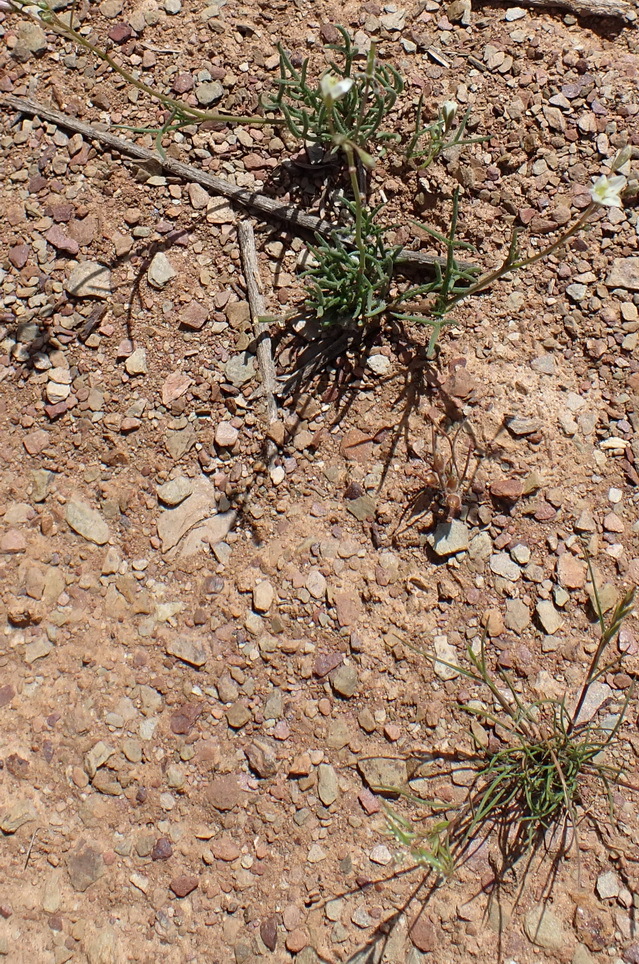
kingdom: Plantae
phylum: Tracheophyta
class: Magnoliopsida
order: Brassicales
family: Brassicaceae
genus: Heliophila
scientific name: Heliophila crithmifolia
